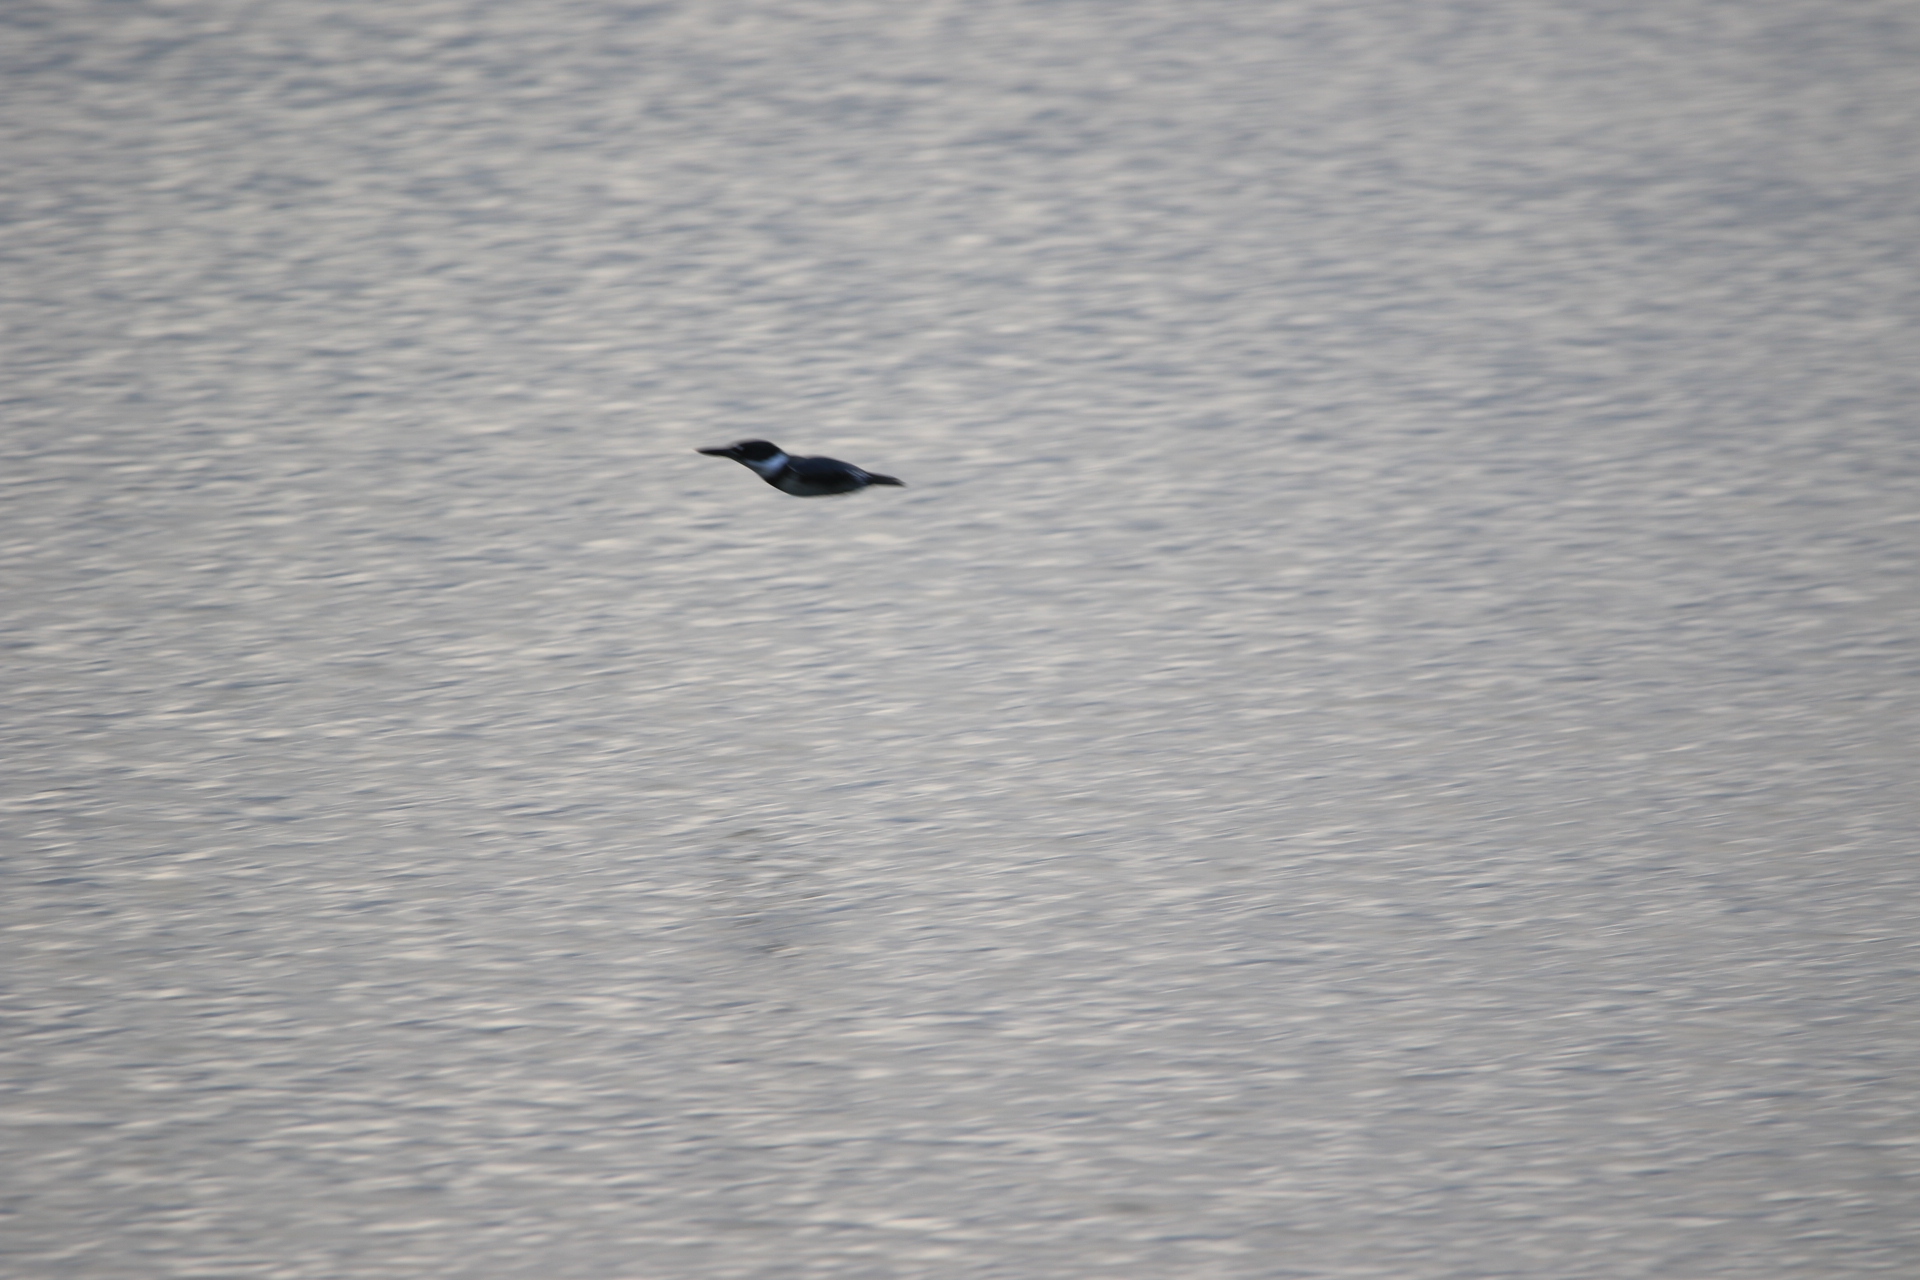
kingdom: Animalia
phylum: Chordata
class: Aves
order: Coraciiformes
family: Alcedinidae
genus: Megaceryle
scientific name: Megaceryle alcyon
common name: Belted kingfisher
